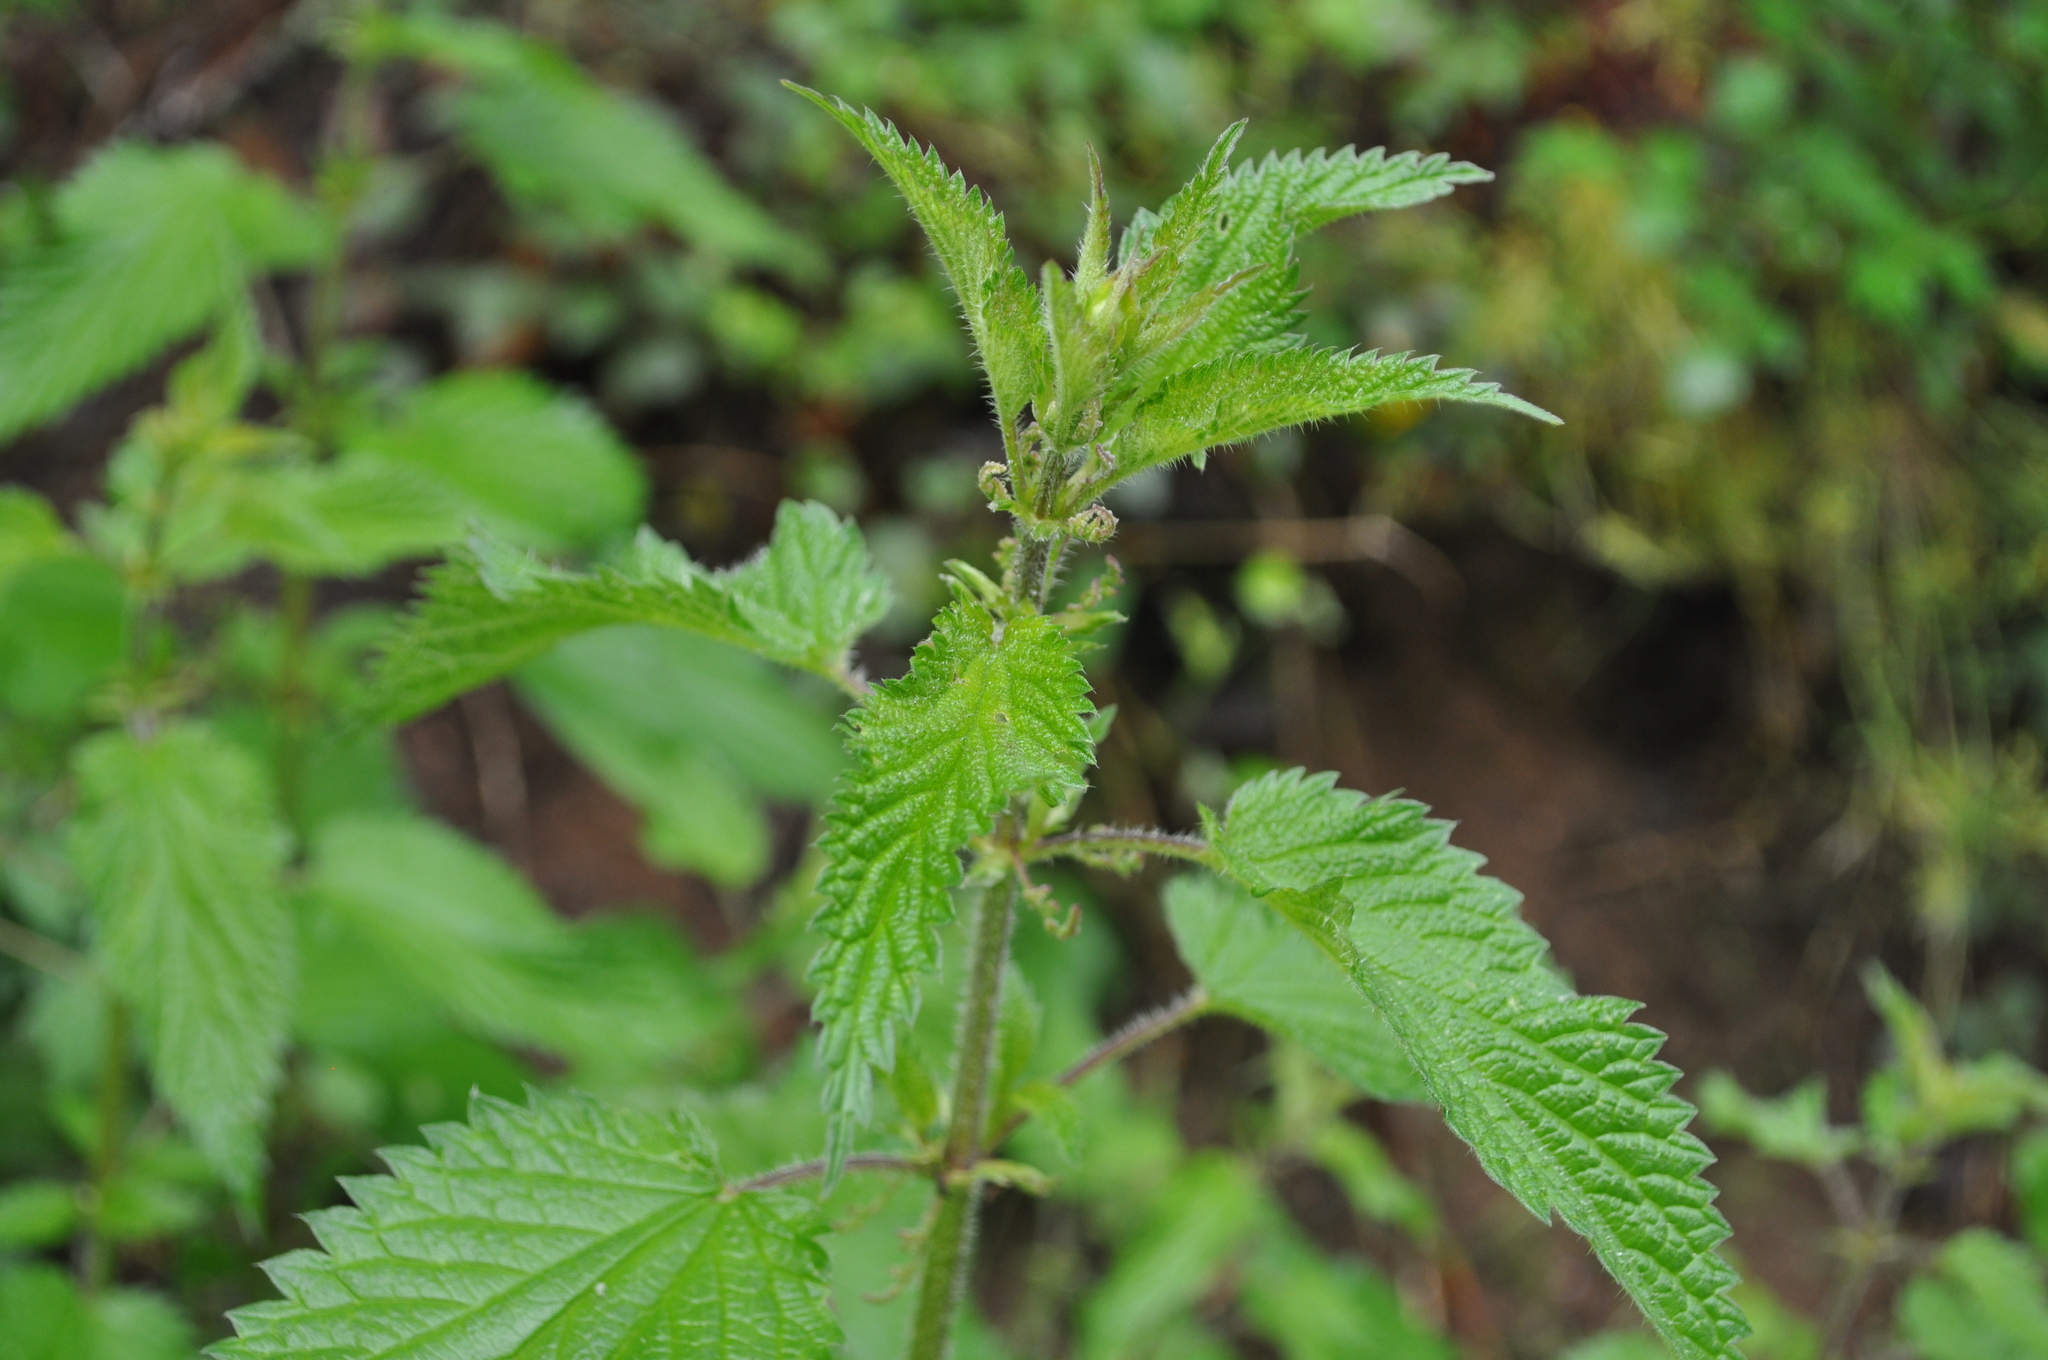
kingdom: Plantae
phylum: Tracheophyta
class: Magnoliopsida
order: Rosales
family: Urticaceae
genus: Urtica
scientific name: Urtica dioica
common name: Common nettle
